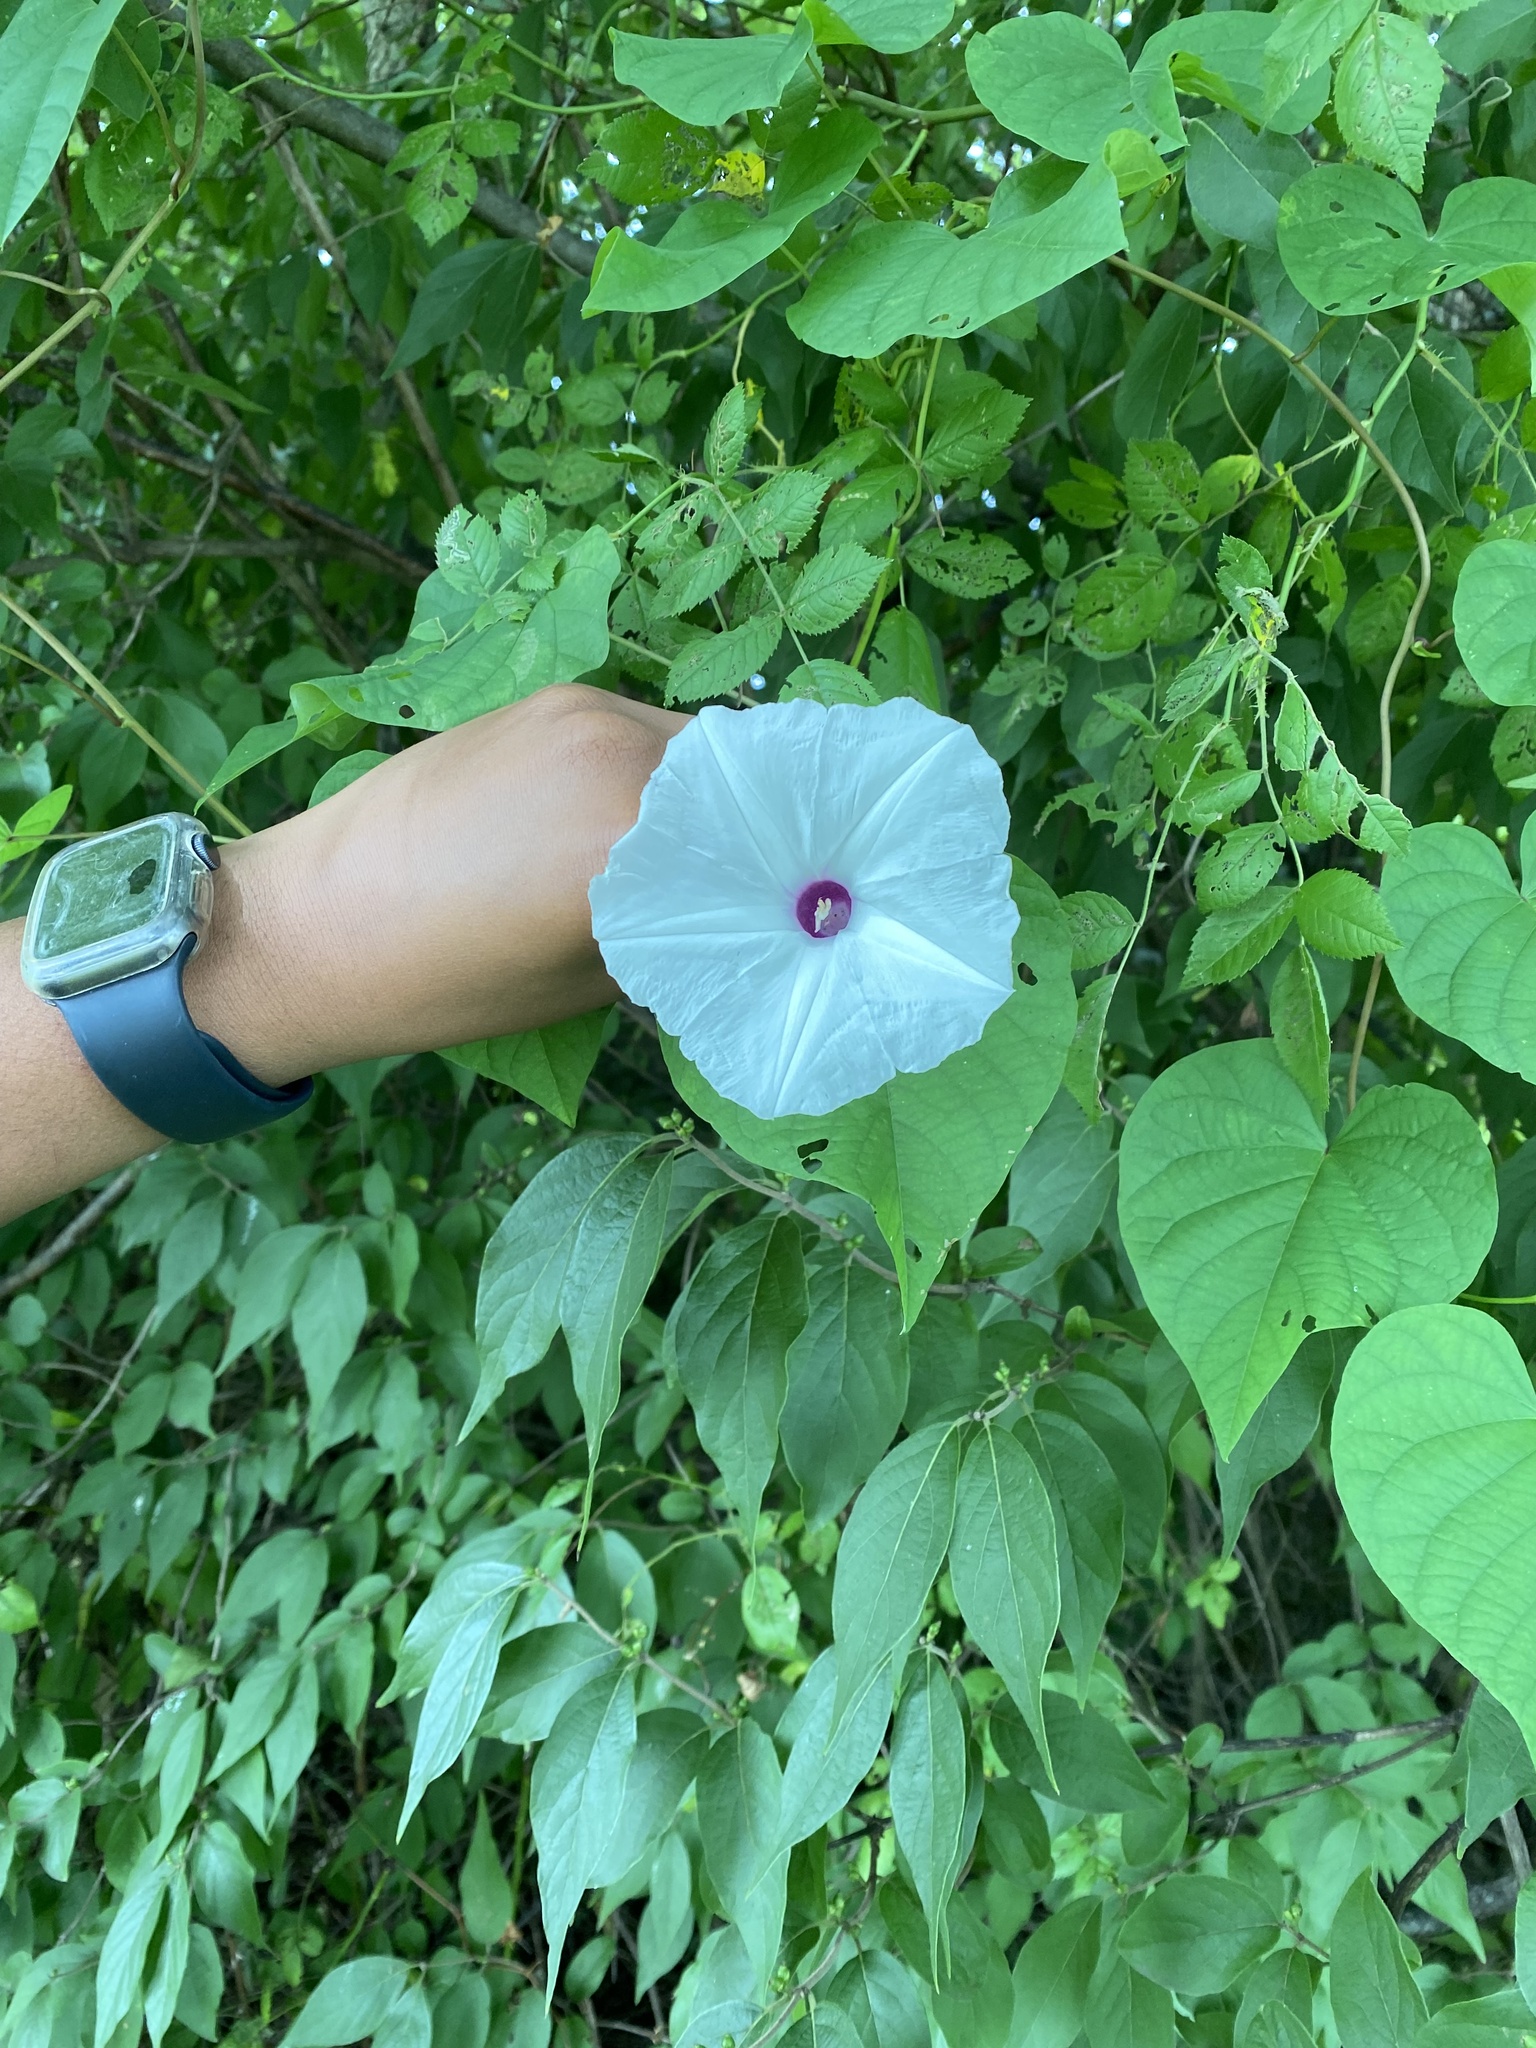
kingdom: Plantae
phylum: Tracheophyta
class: Magnoliopsida
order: Solanales
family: Convolvulaceae
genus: Ipomoea
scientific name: Ipomoea pandurata
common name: Man-of-the-earth
